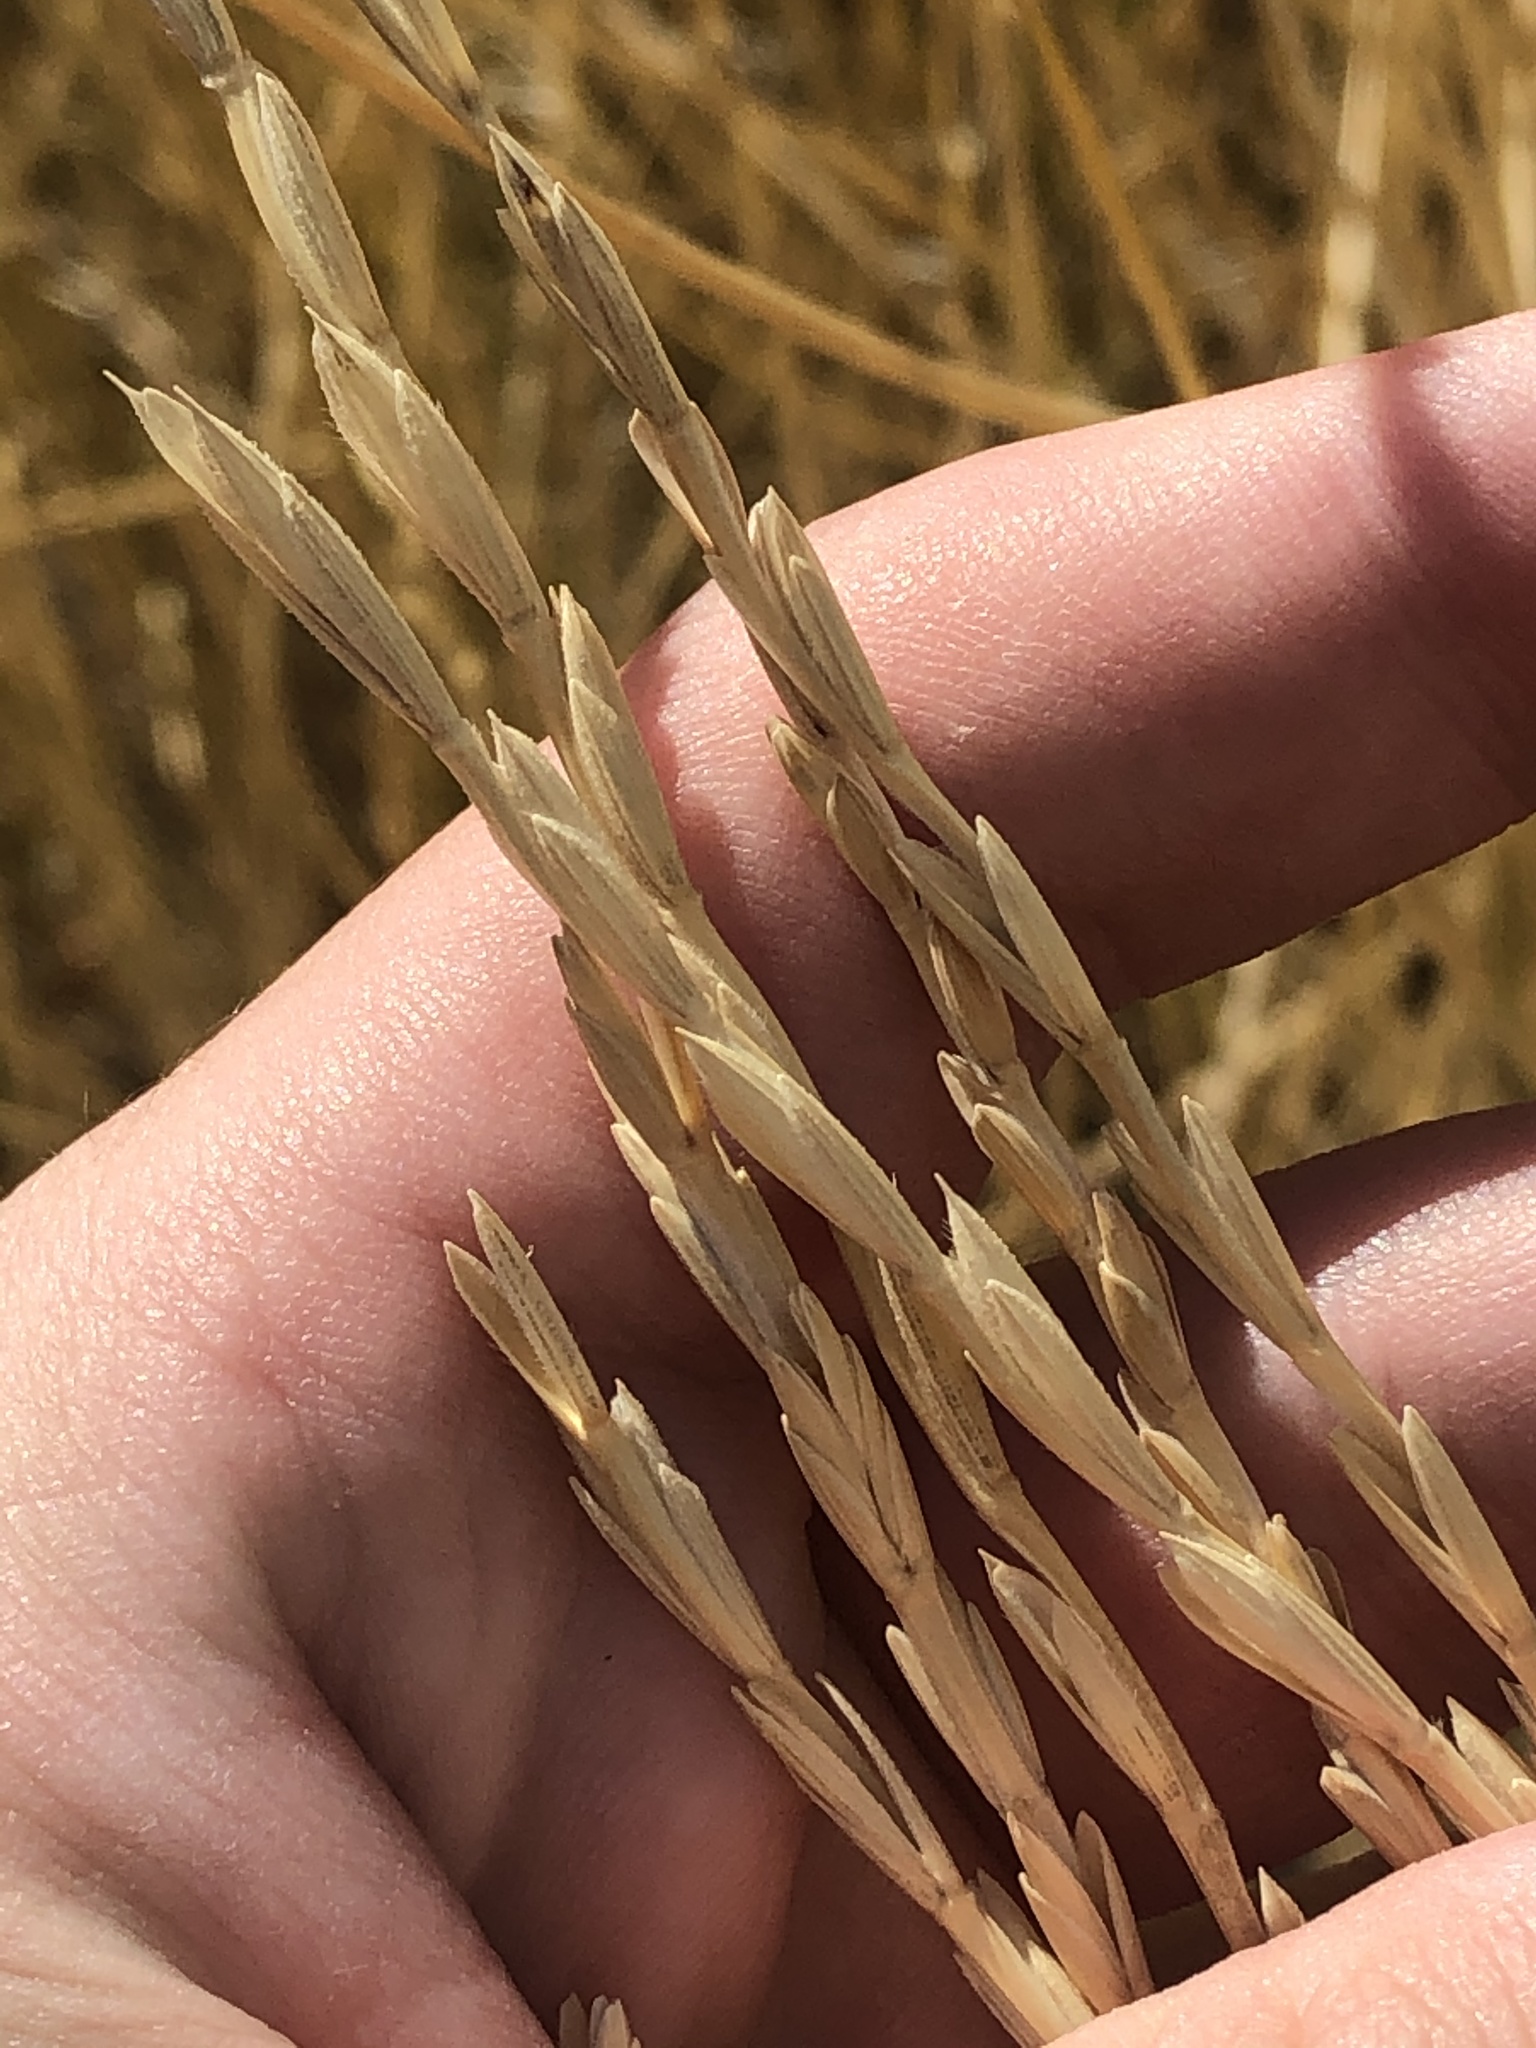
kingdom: Plantae
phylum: Tracheophyta
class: Liliopsida
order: Poales
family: Poaceae
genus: Thinopyrum
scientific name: Thinopyrum intermedium
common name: Intermediate wheatgrass
